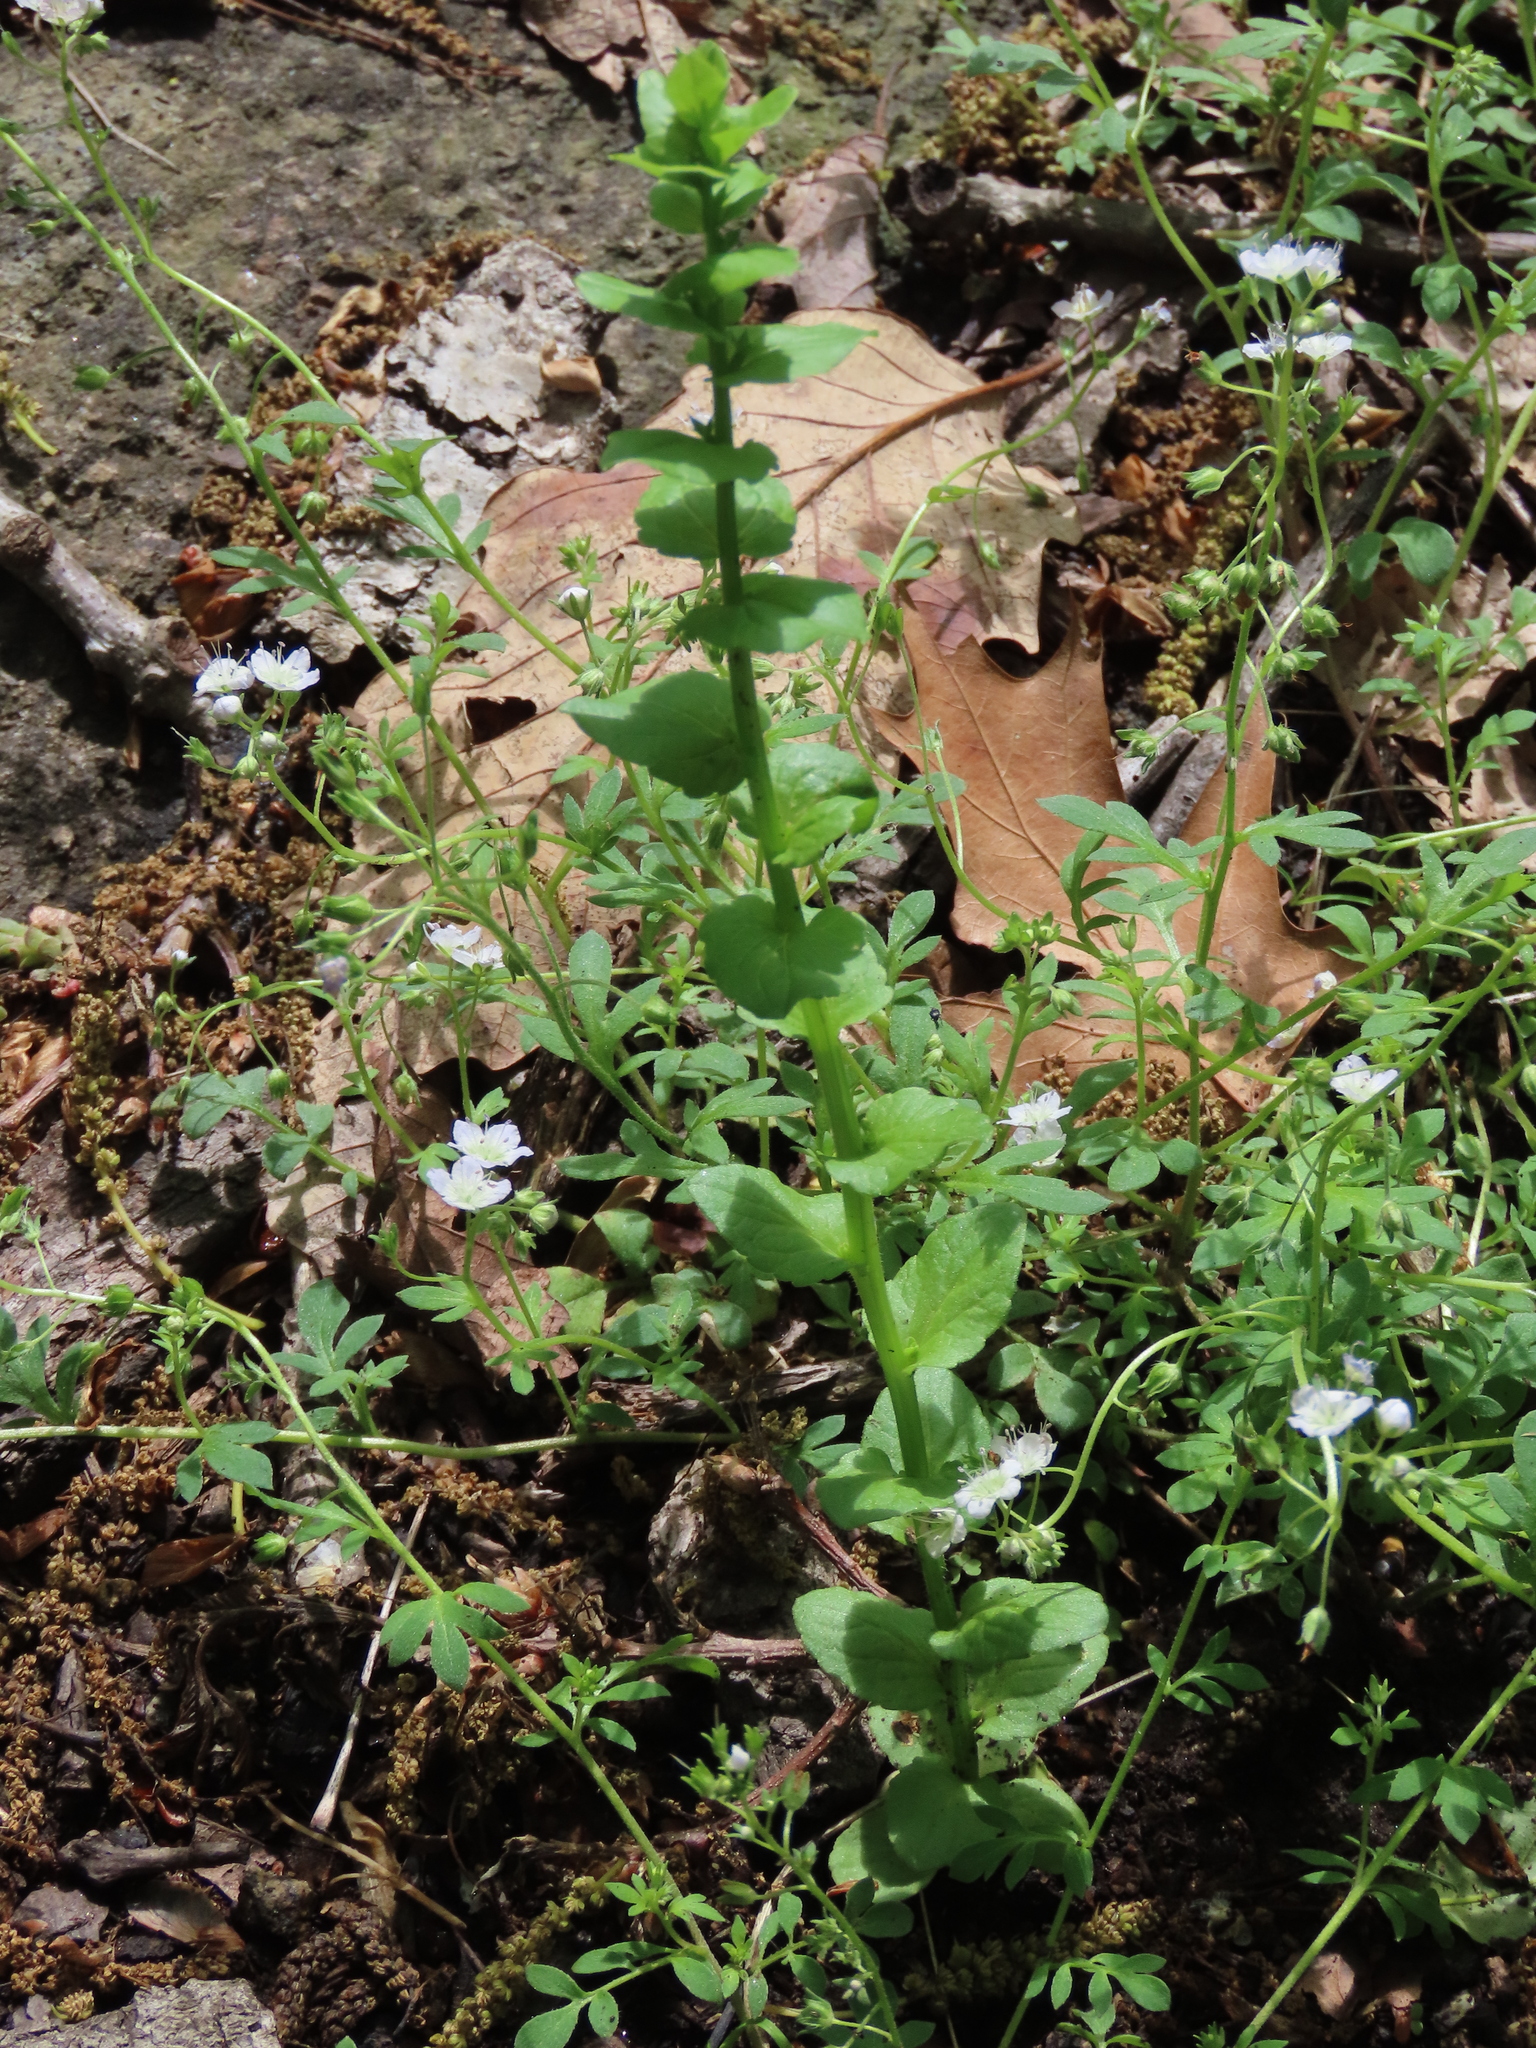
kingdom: Plantae
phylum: Tracheophyta
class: Magnoliopsida
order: Asterales
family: Campanulaceae
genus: Triodanis
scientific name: Triodanis perfoliata
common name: Clasping venus' looking-glass
